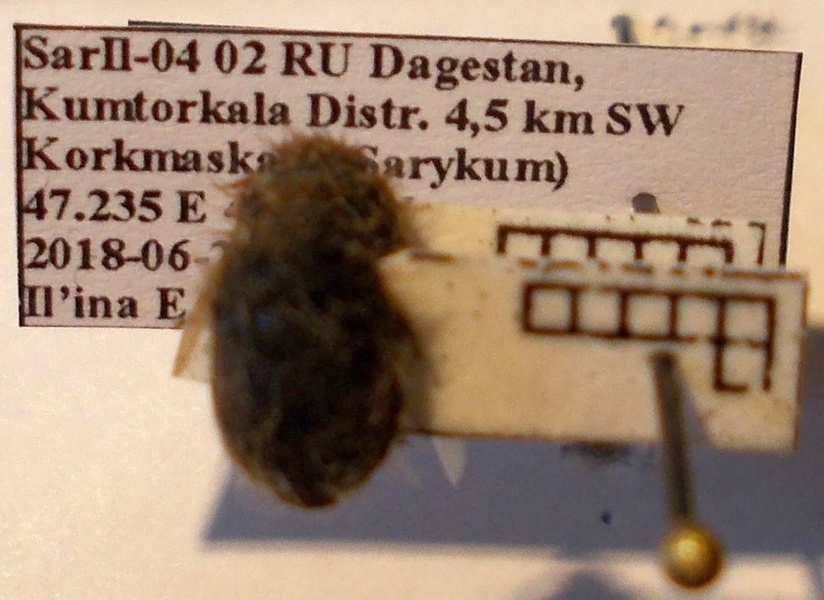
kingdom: Animalia
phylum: Arthropoda
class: Insecta
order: Hemiptera
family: Scutelleridae
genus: Irochrotus
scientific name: Irochrotus lanatus
